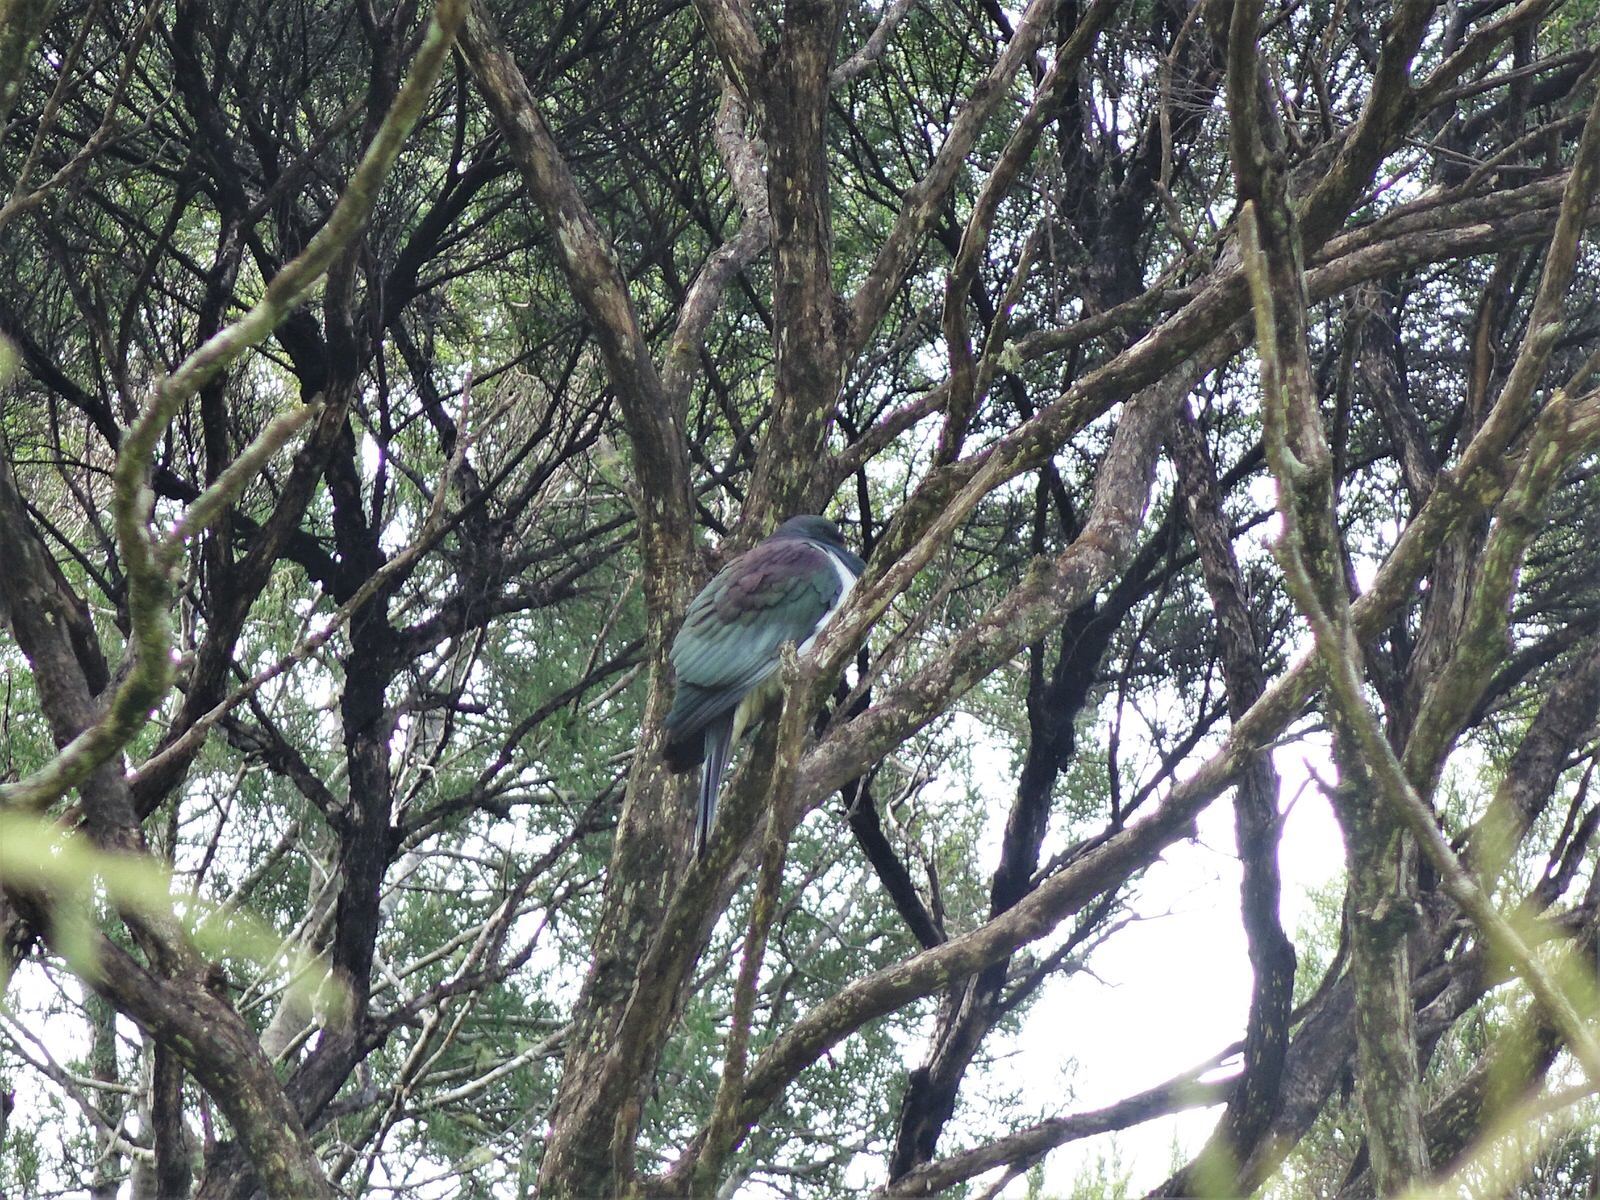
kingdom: Animalia
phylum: Chordata
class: Aves
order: Columbiformes
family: Columbidae
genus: Hemiphaga
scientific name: Hemiphaga novaeseelandiae
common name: New zealand pigeon
